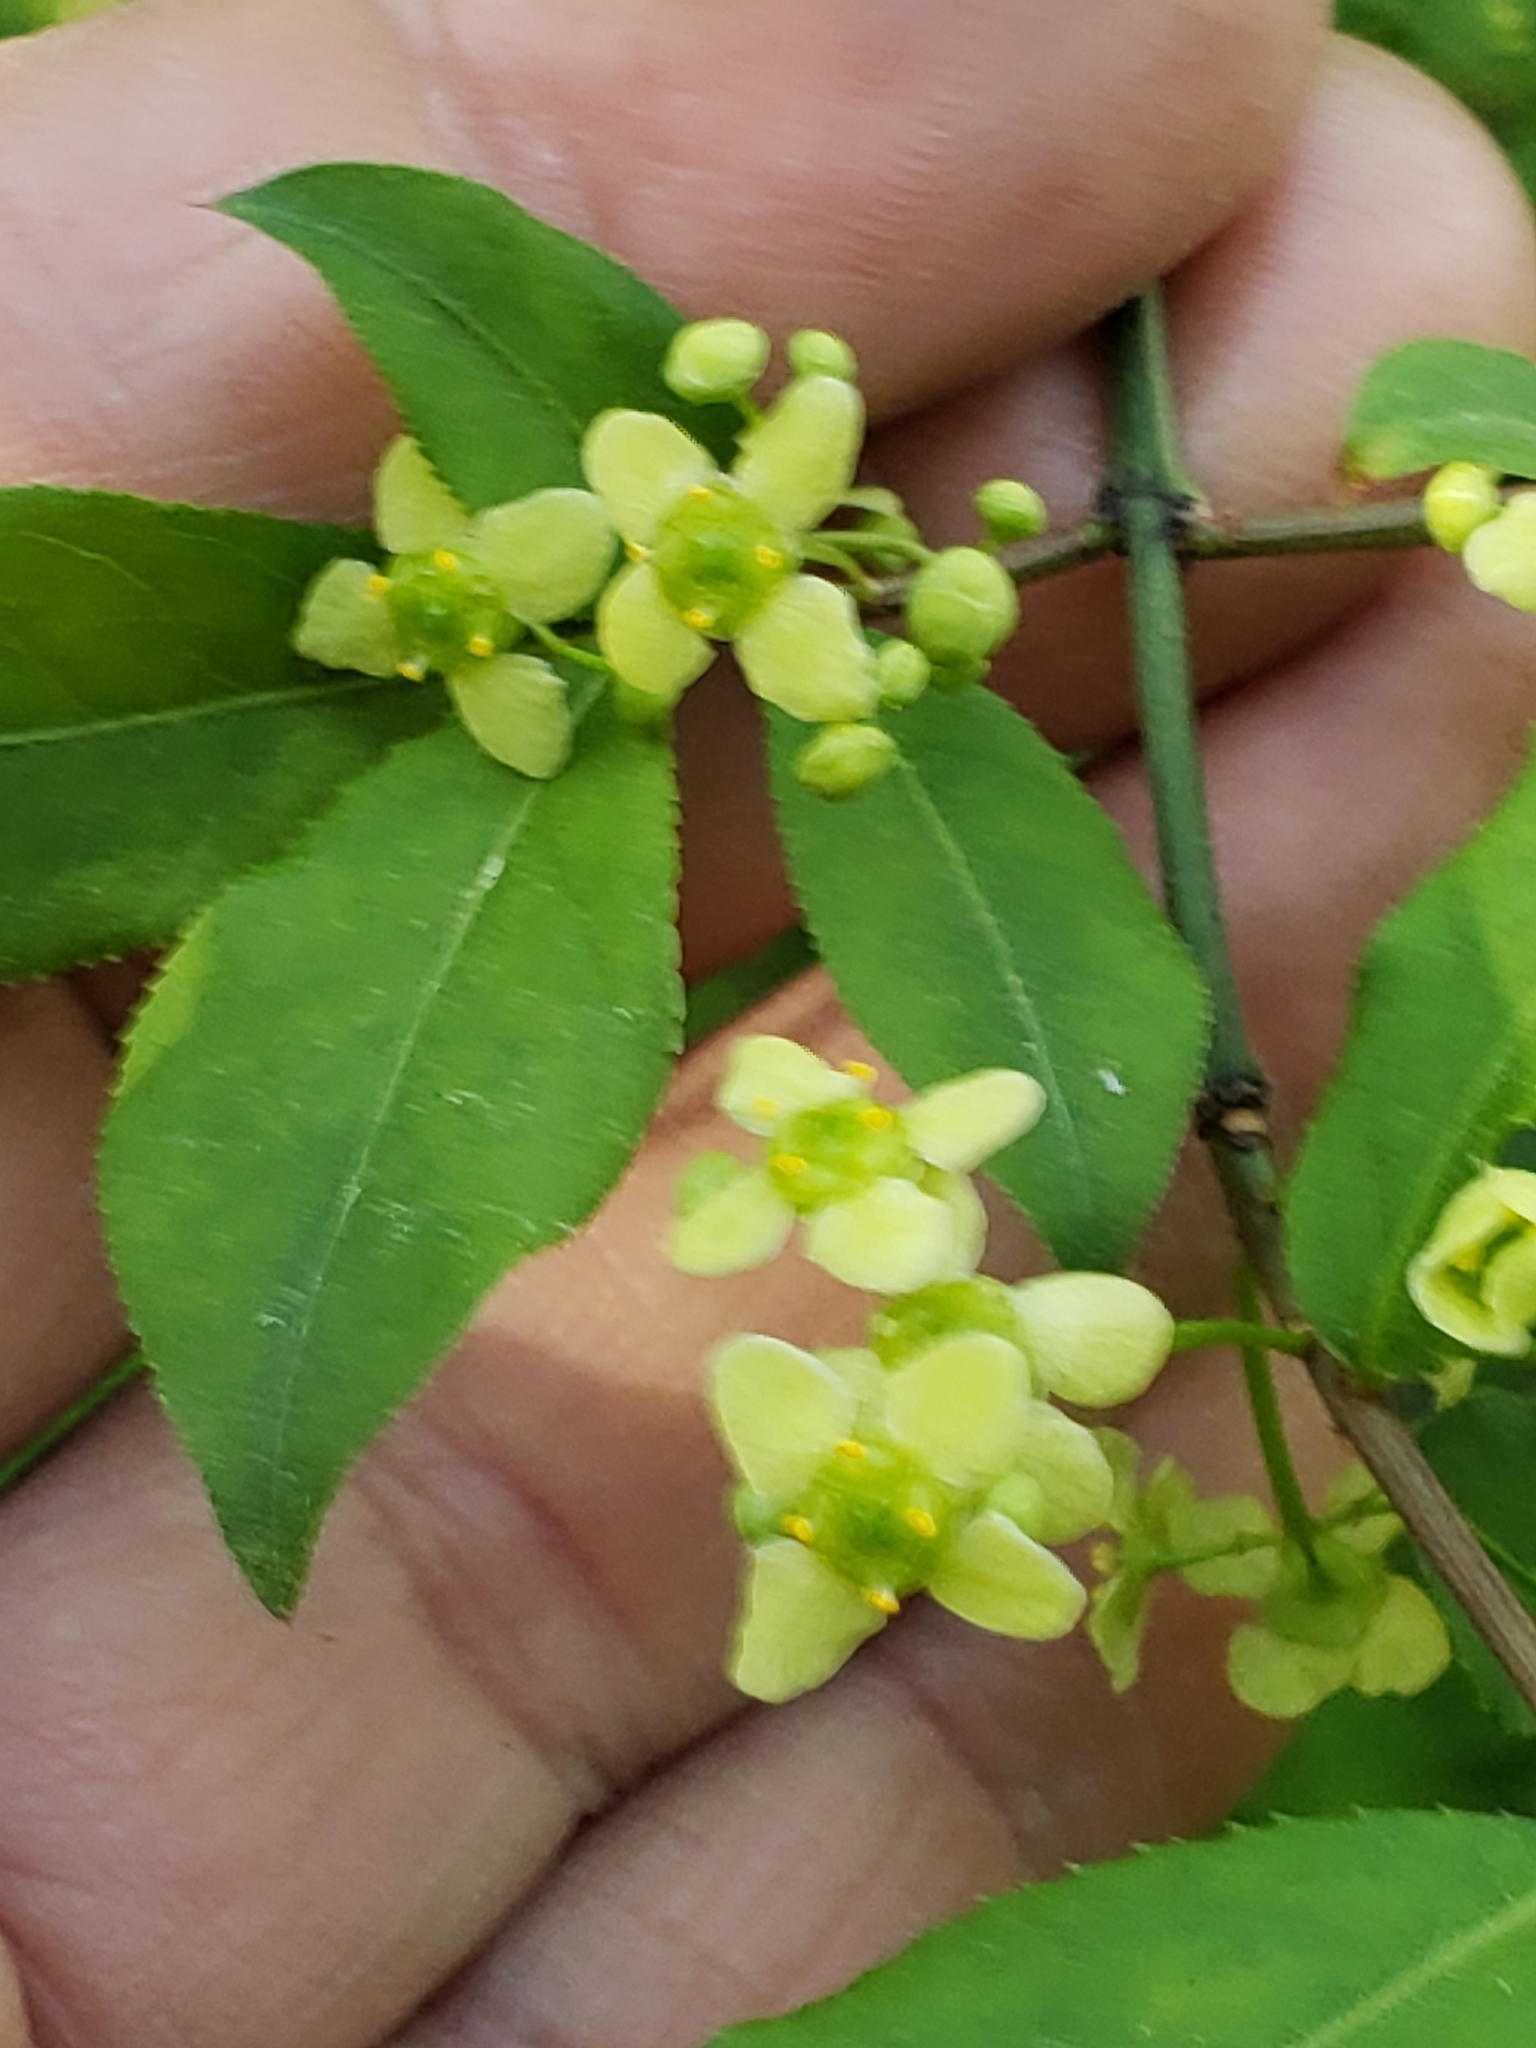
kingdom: Plantae
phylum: Tracheophyta
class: Magnoliopsida
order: Celastrales
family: Celastraceae
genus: Euonymus
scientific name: Euonymus alatus
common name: Winged euonymus
